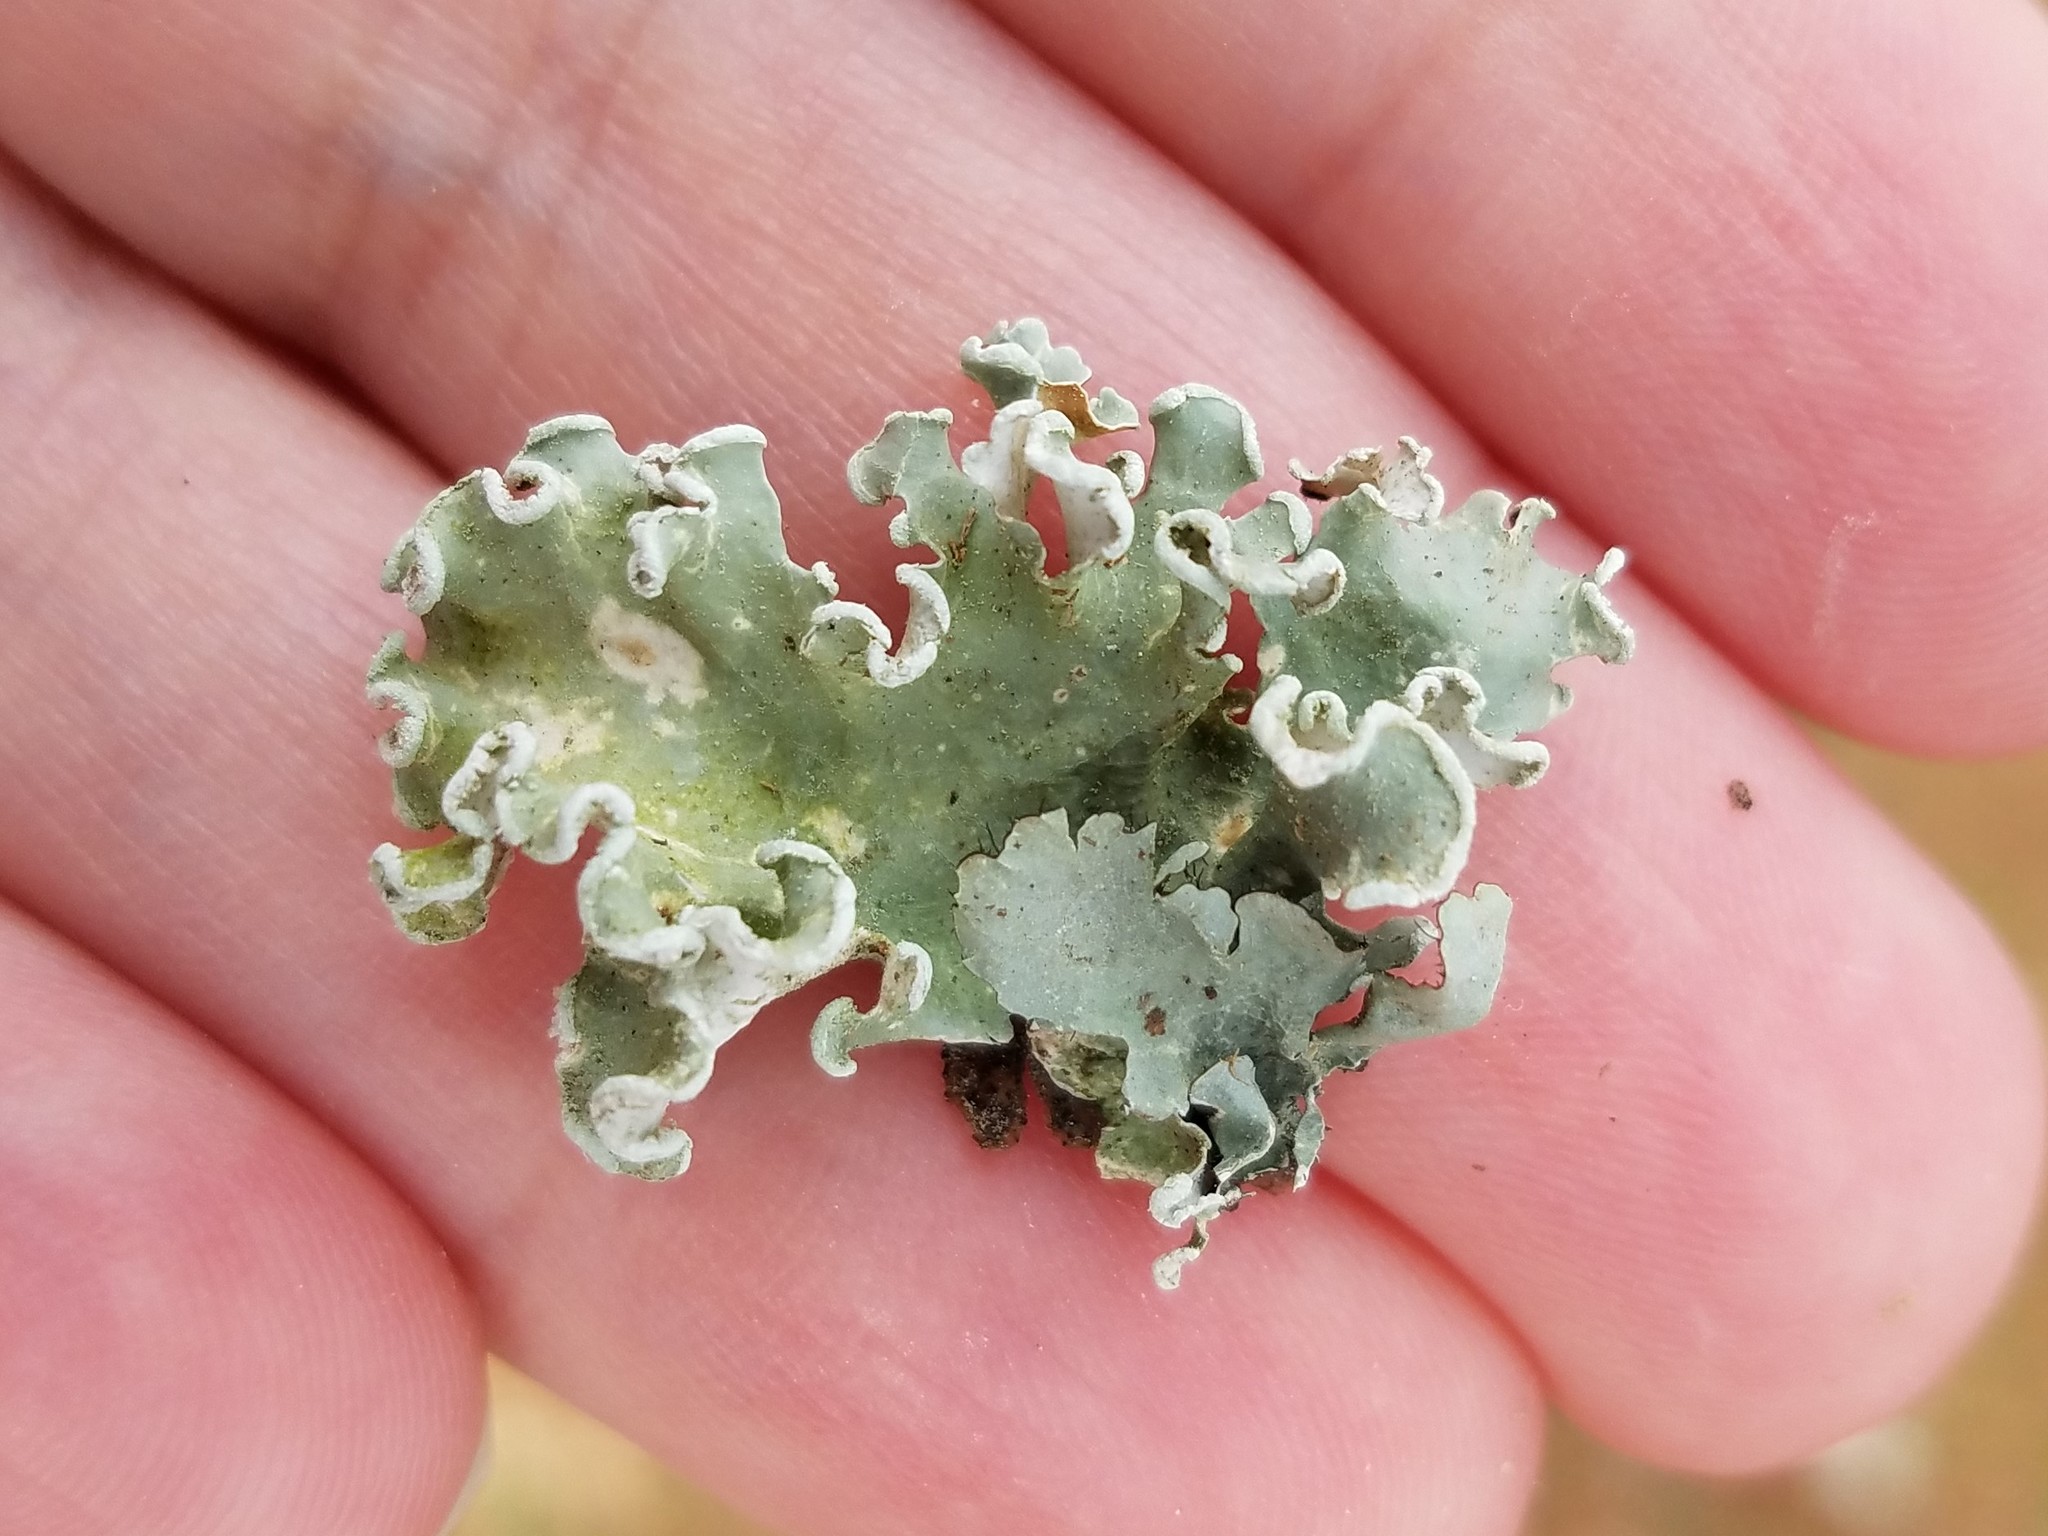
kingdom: Fungi
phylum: Ascomycota
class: Lecanoromycetes
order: Lecanorales
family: Parmeliaceae
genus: Parmotrema
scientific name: Parmotrema austrosinense
